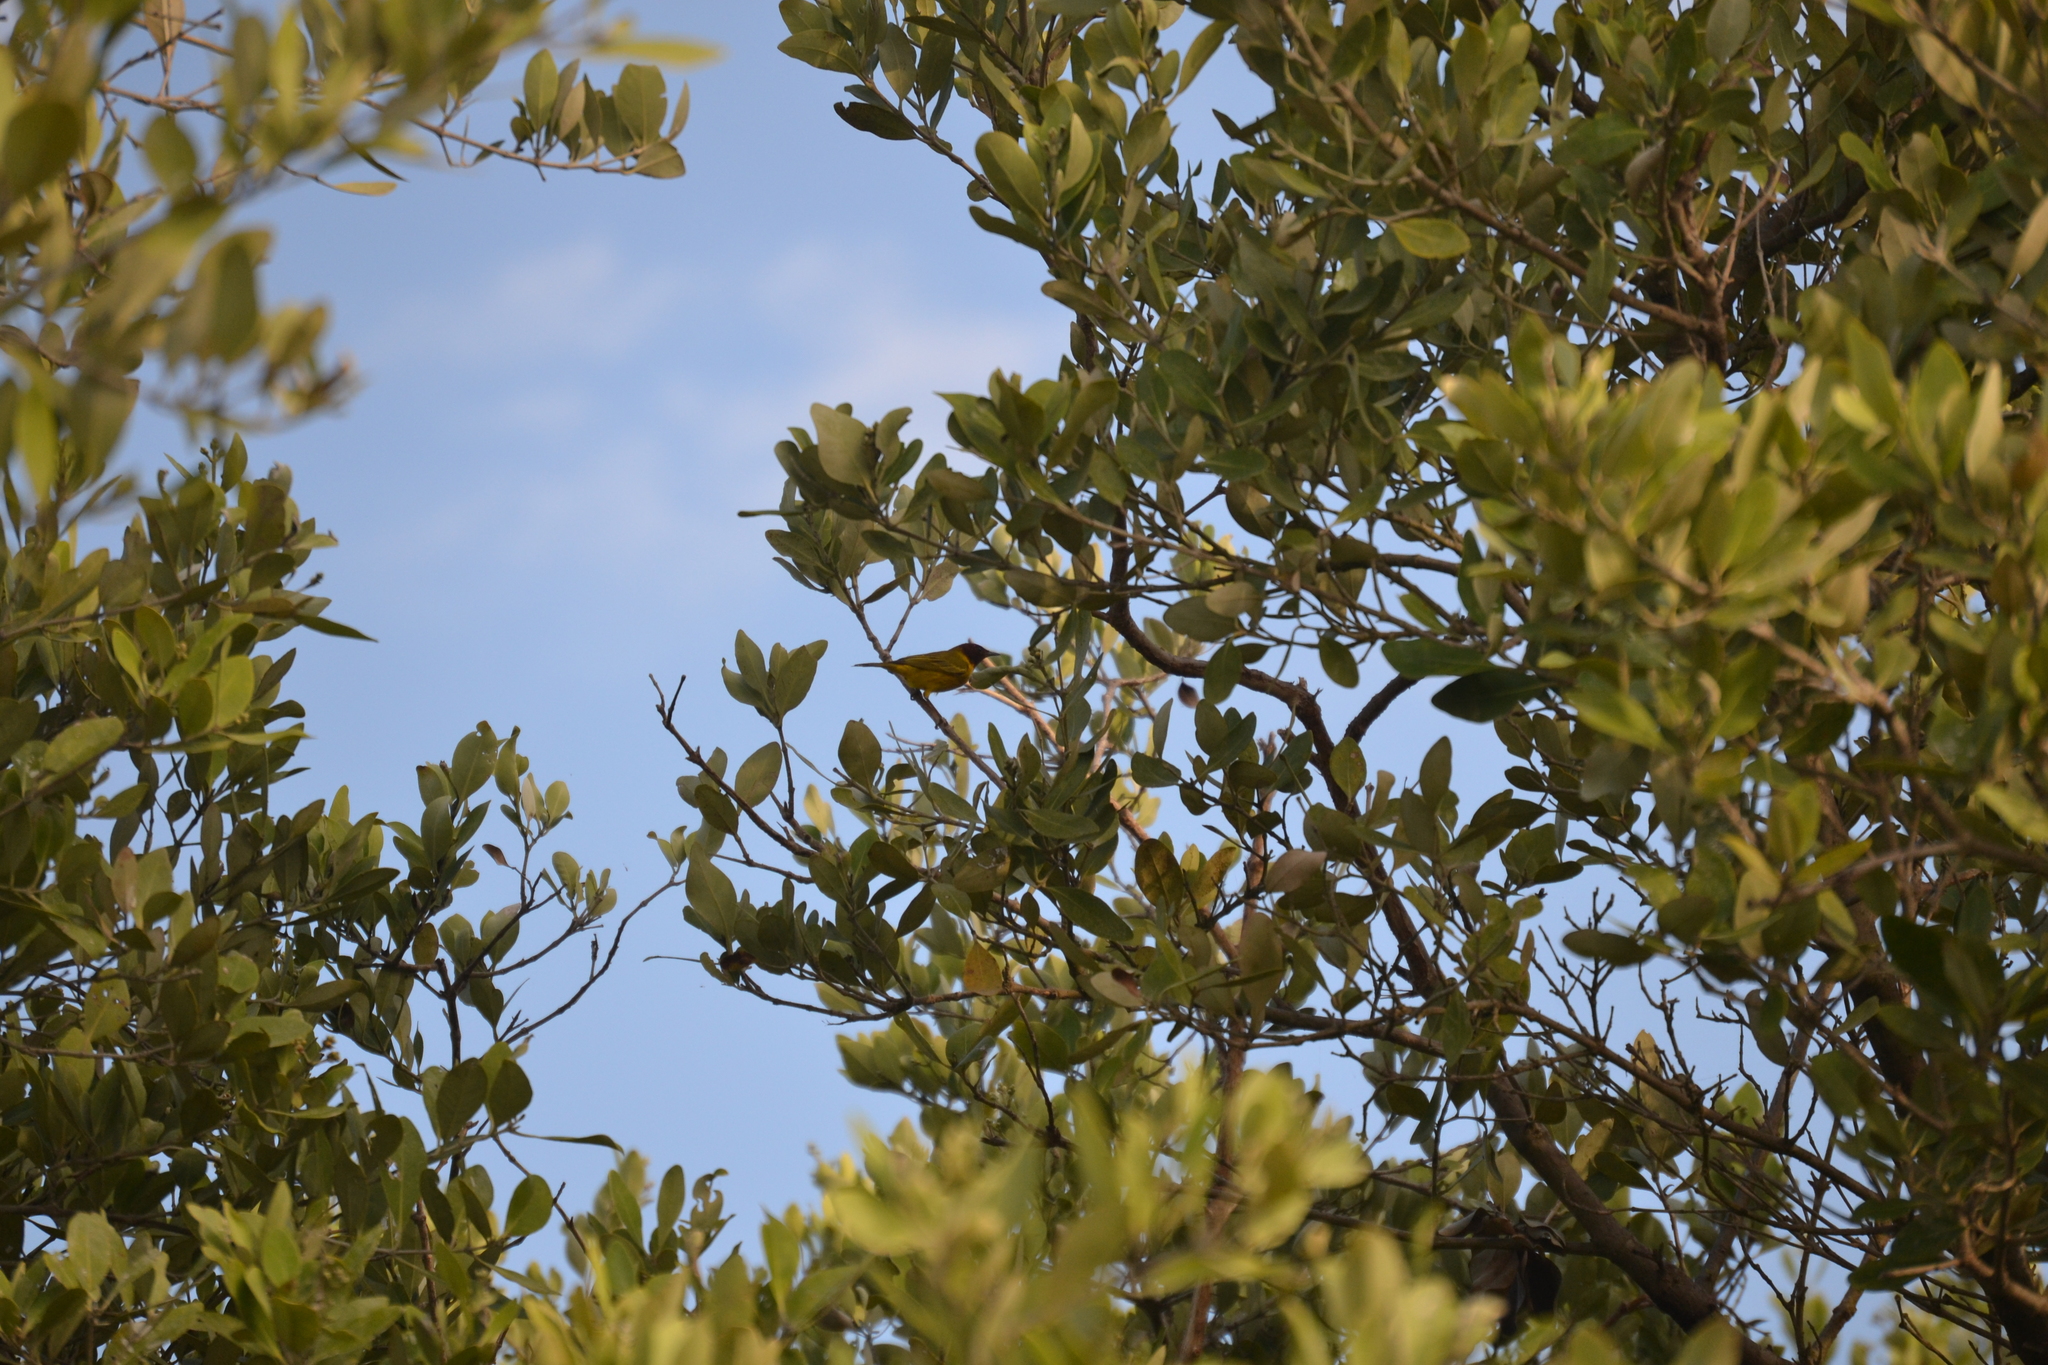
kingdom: Animalia
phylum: Chordata
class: Aves
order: Passeriformes
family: Parulidae
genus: Setophaga
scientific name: Setophaga petechia
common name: Yellow warbler
